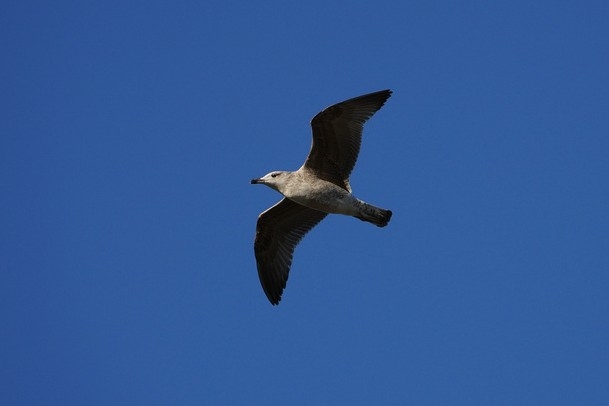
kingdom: Animalia
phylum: Chordata
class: Aves
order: Charadriiformes
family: Laridae
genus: Larus
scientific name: Larus michahellis
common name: Yellow-legged gull
